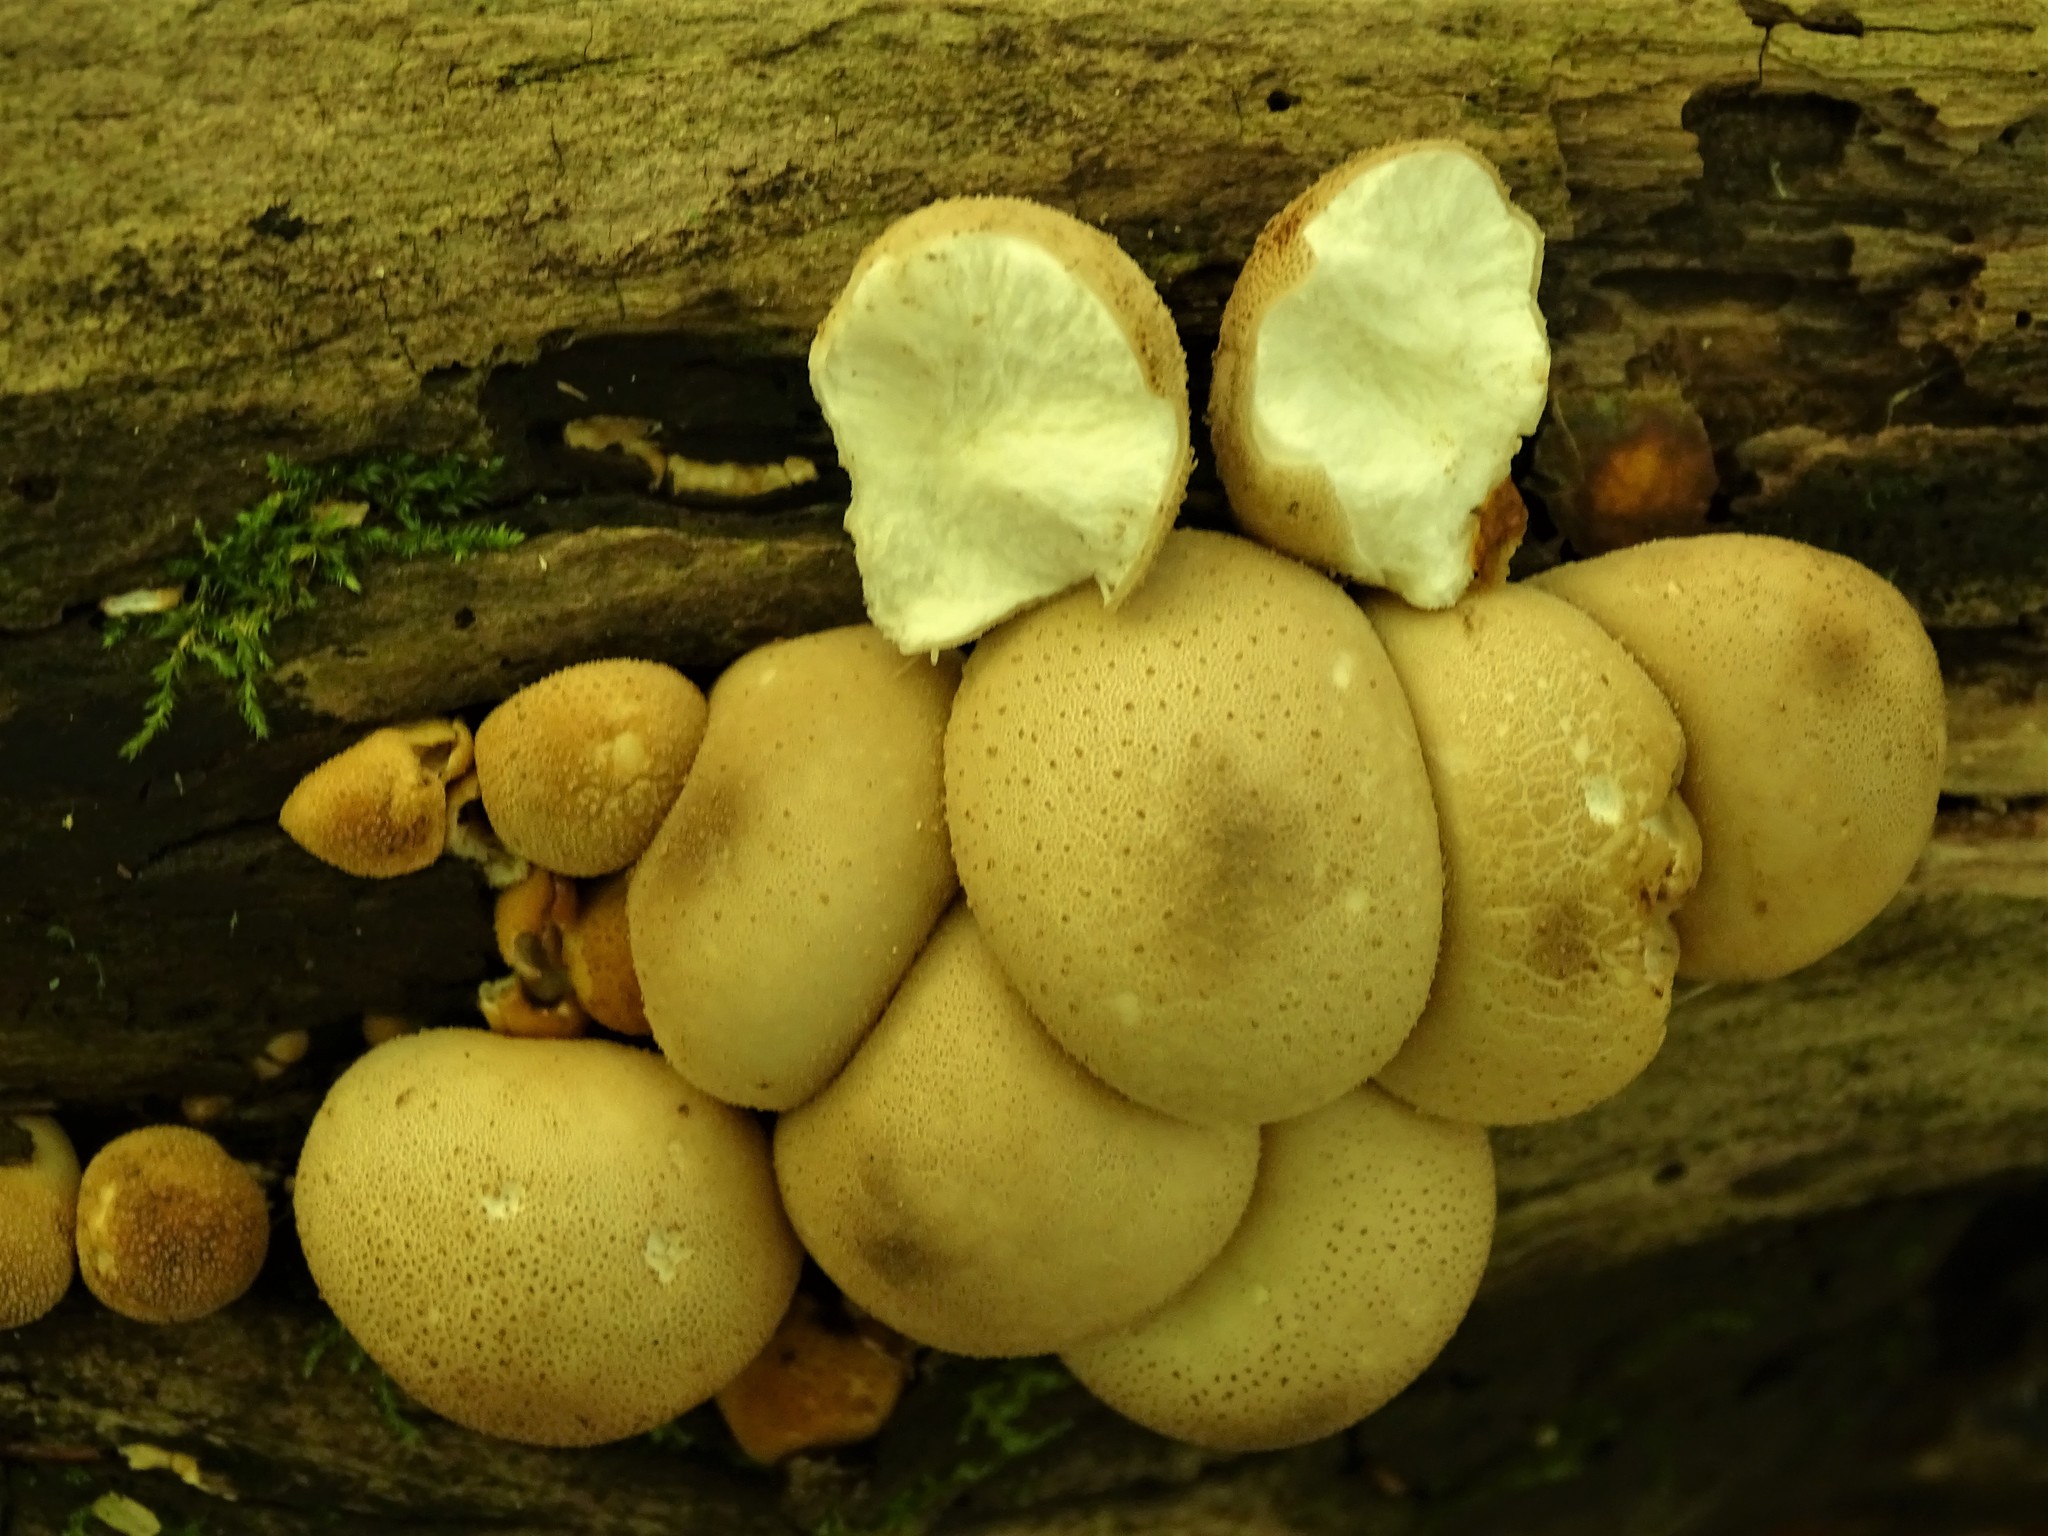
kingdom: Fungi
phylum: Basidiomycota
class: Agaricomycetes
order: Agaricales
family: Lycoperdaceae
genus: Apioperdon
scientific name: Apioperdon pyriforme
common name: Pear-shaped puffball
